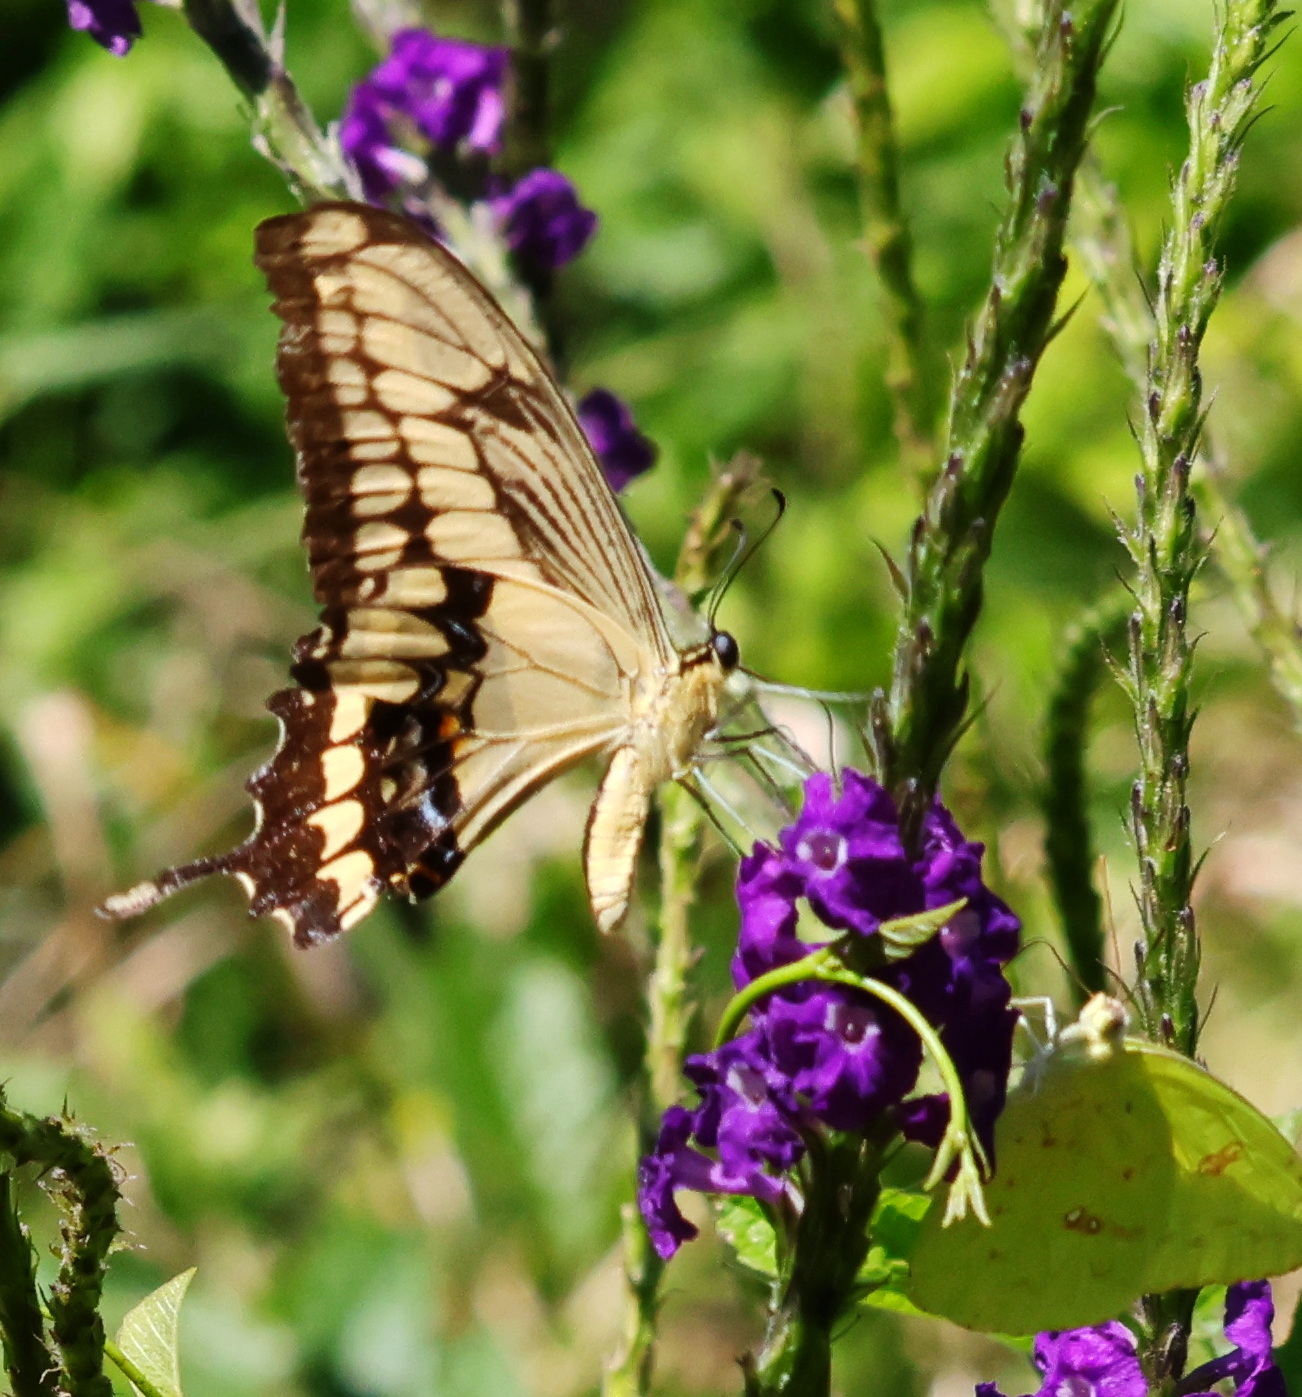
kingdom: Animalia
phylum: Arthropoda
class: Insecta
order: Lepidoptera
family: Papilionidae
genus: Papilio
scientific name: Papilio thoas
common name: King swallowtail
